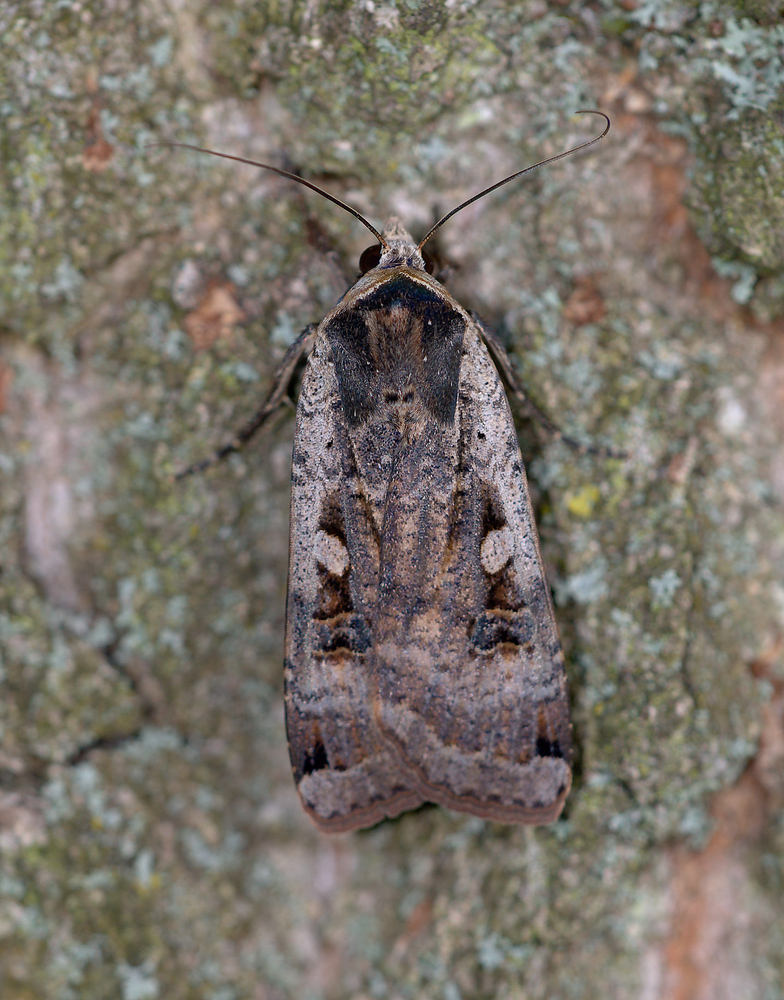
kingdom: Animalia
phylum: Arthropoda
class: Insecta
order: Lepidoptera
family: Noctuidae
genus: Noctua
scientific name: Noctua pronuba
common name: Large yellow underwing
